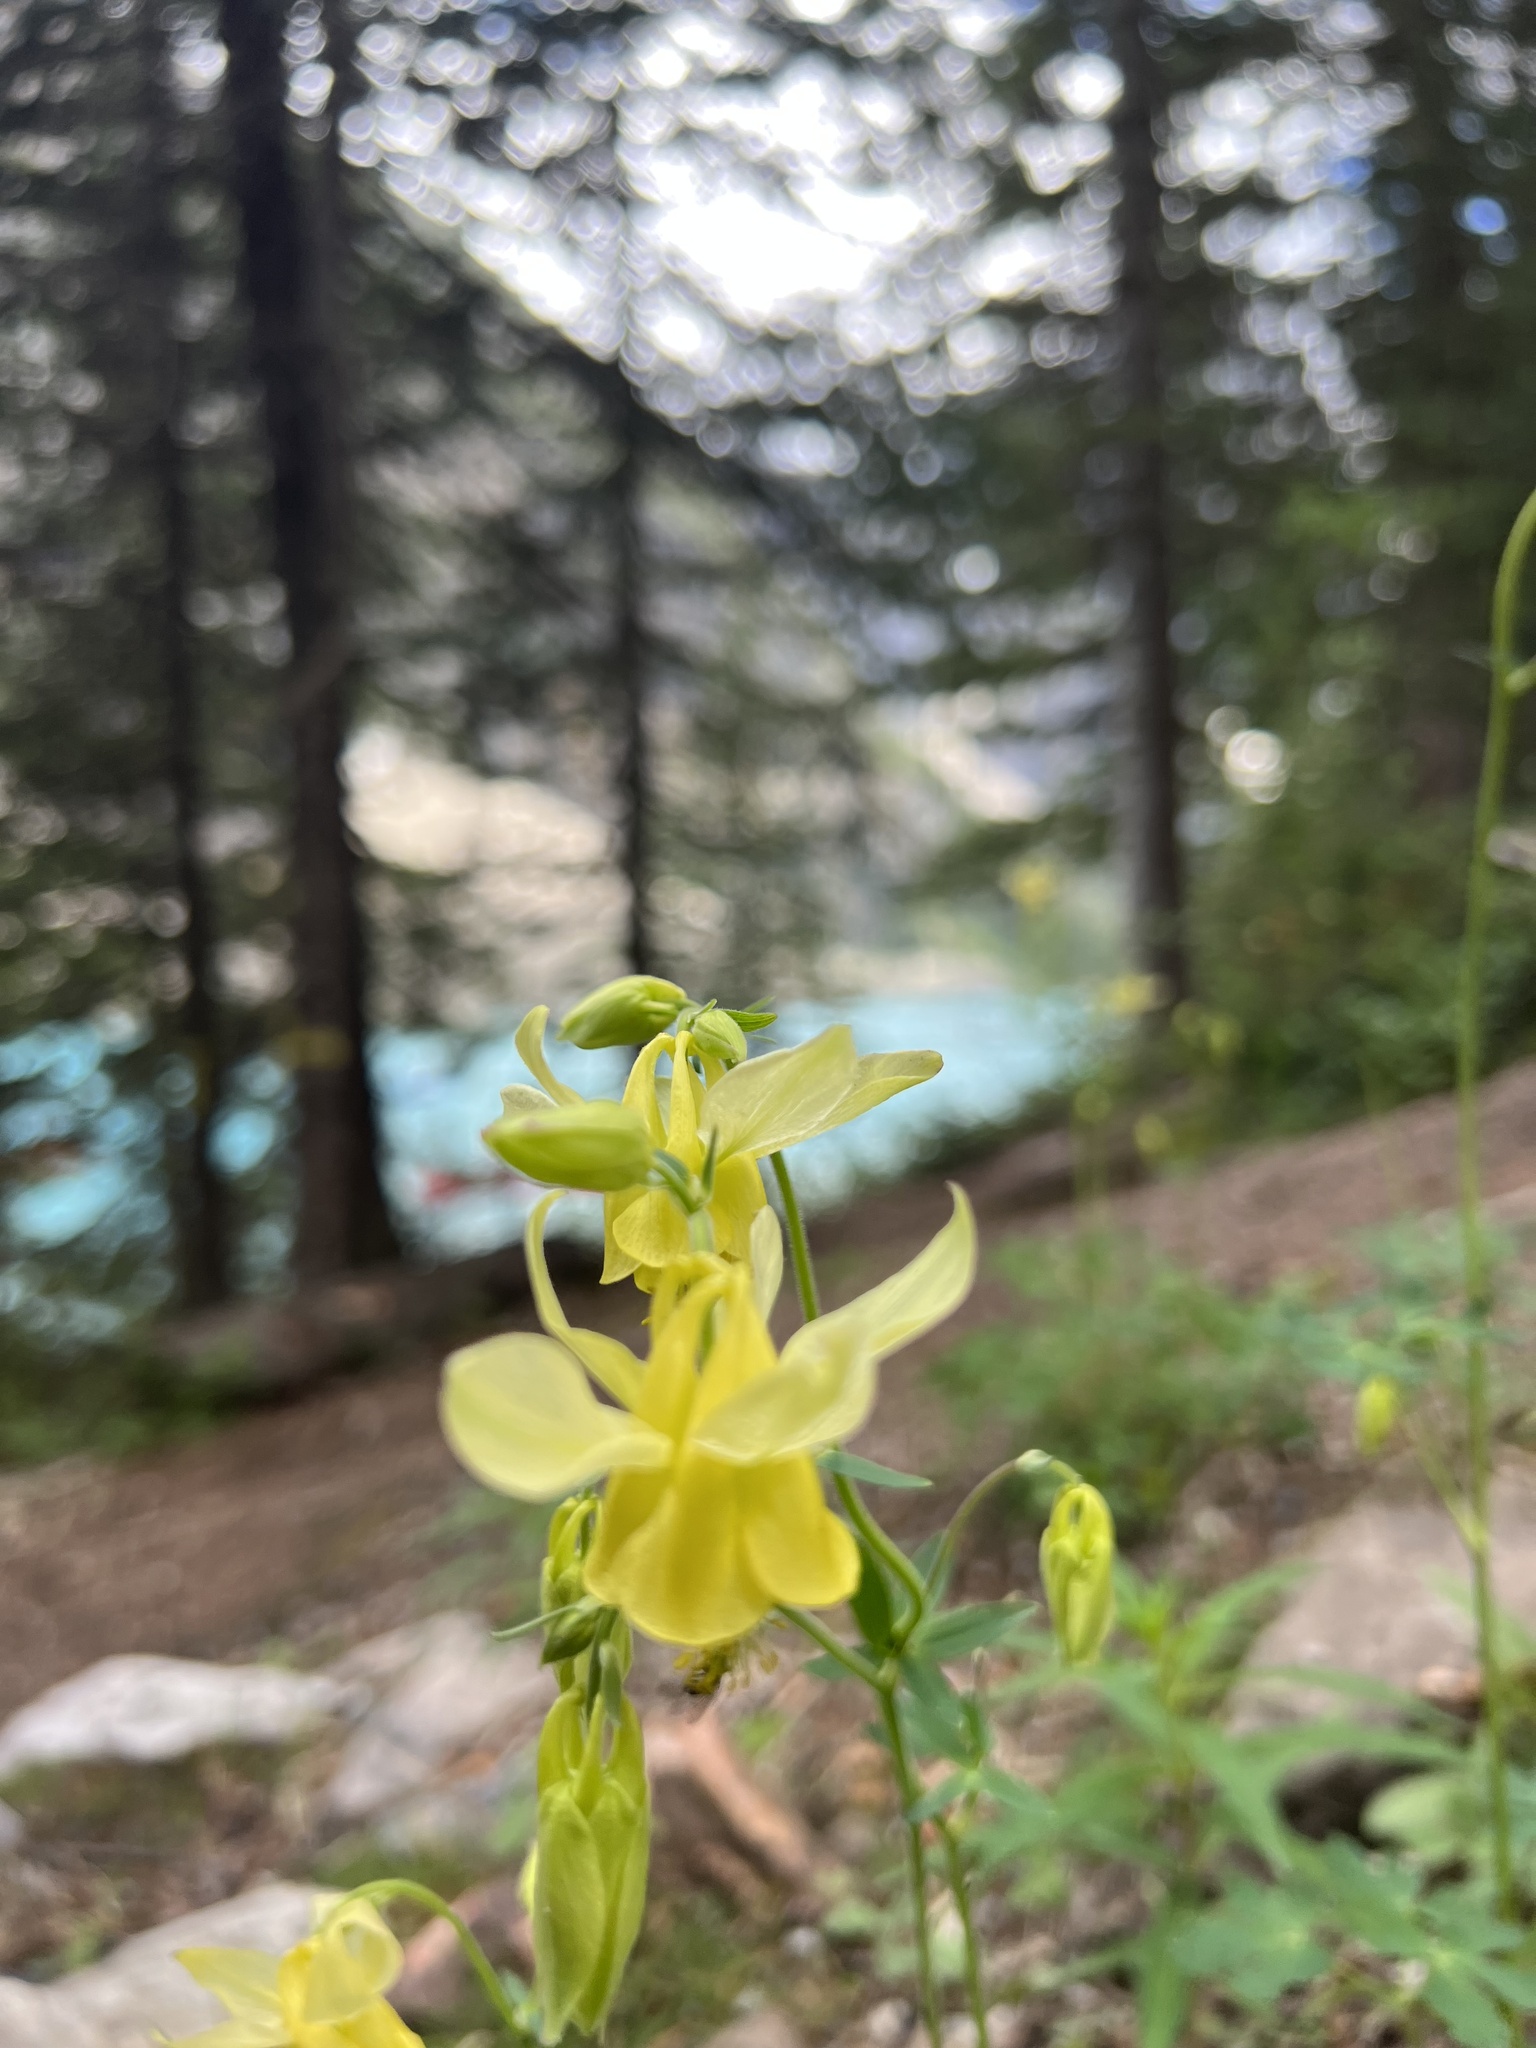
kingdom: Plantae
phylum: Tracheophyta
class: Magnoliopsida
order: Ranunculales
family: Ranunculaceae
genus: Aquilegia
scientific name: Aquilegia flavescens
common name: Yellow columbine
